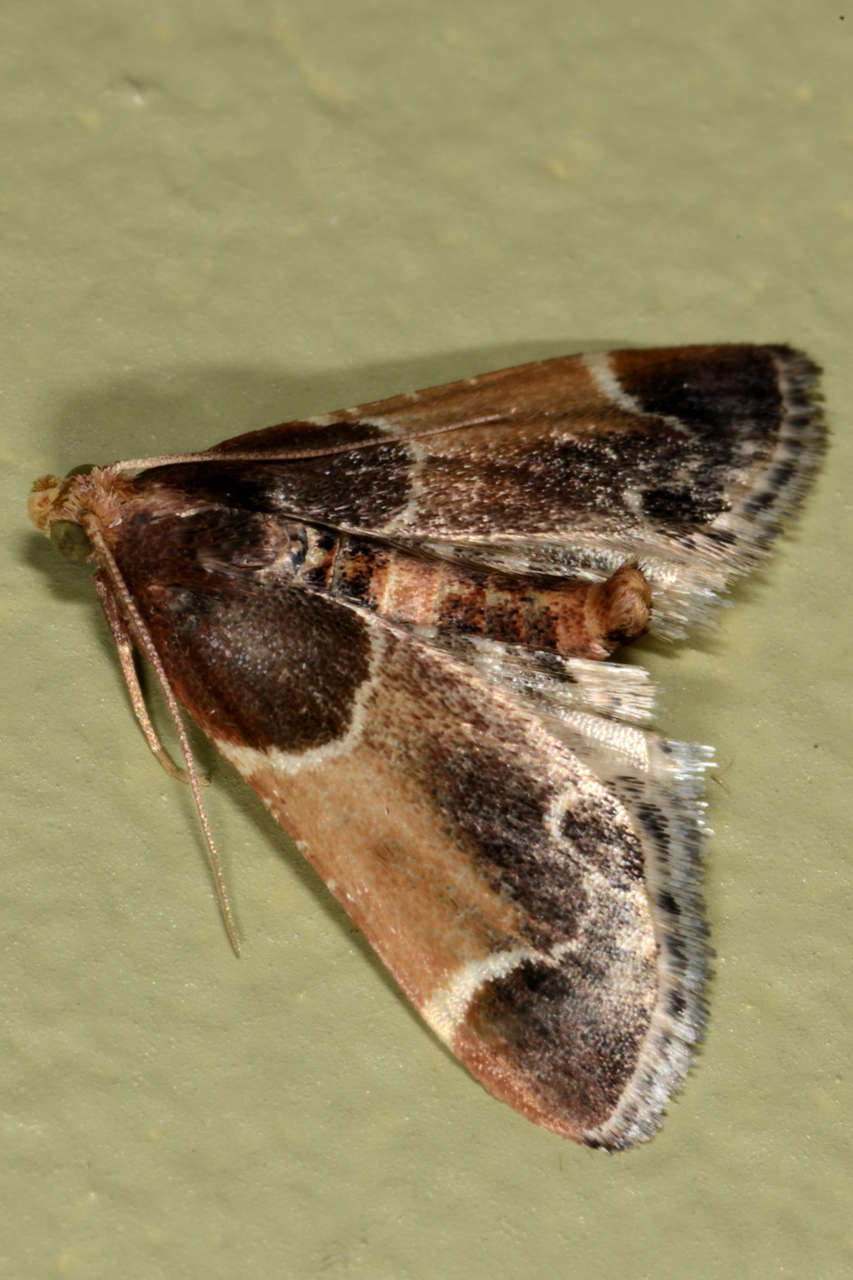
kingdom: Animalia
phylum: Arthropoda
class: Insecta
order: Lepidoptera
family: Pyralidae
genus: Pyralis
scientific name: Pyralis farinalis
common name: Meal moth
